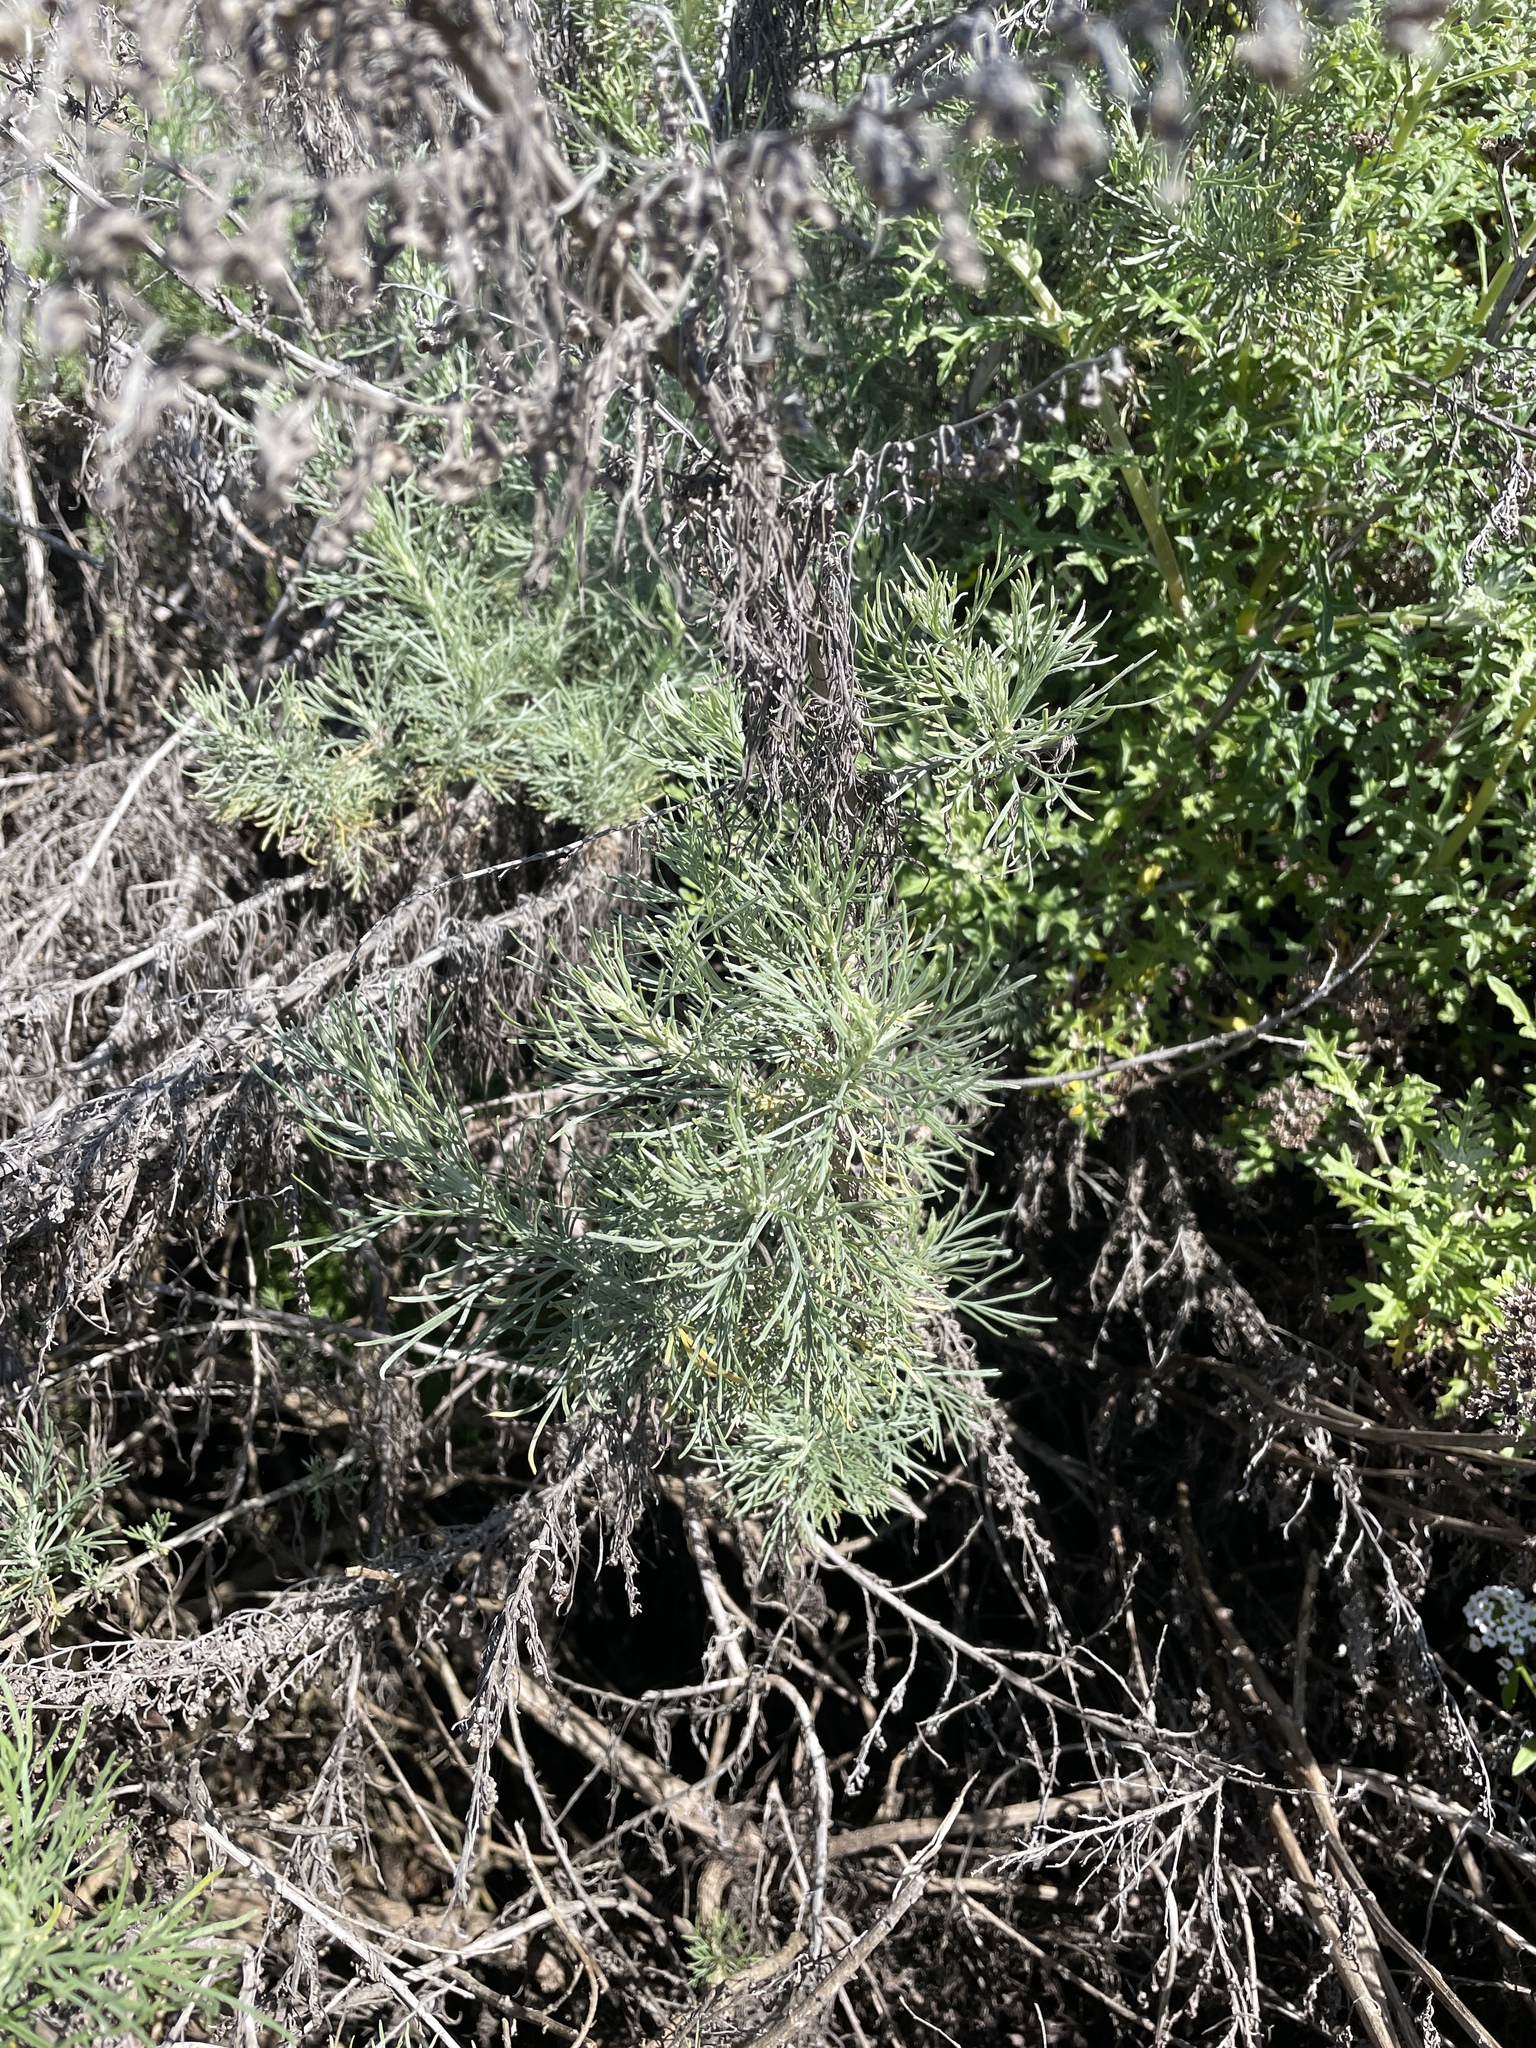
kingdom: Plantae
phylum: Tracheophyta
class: Magnoliopsida
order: Asterales
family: Asteraceae
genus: Artemisia
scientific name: Artemisia californica
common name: California sagebrush
